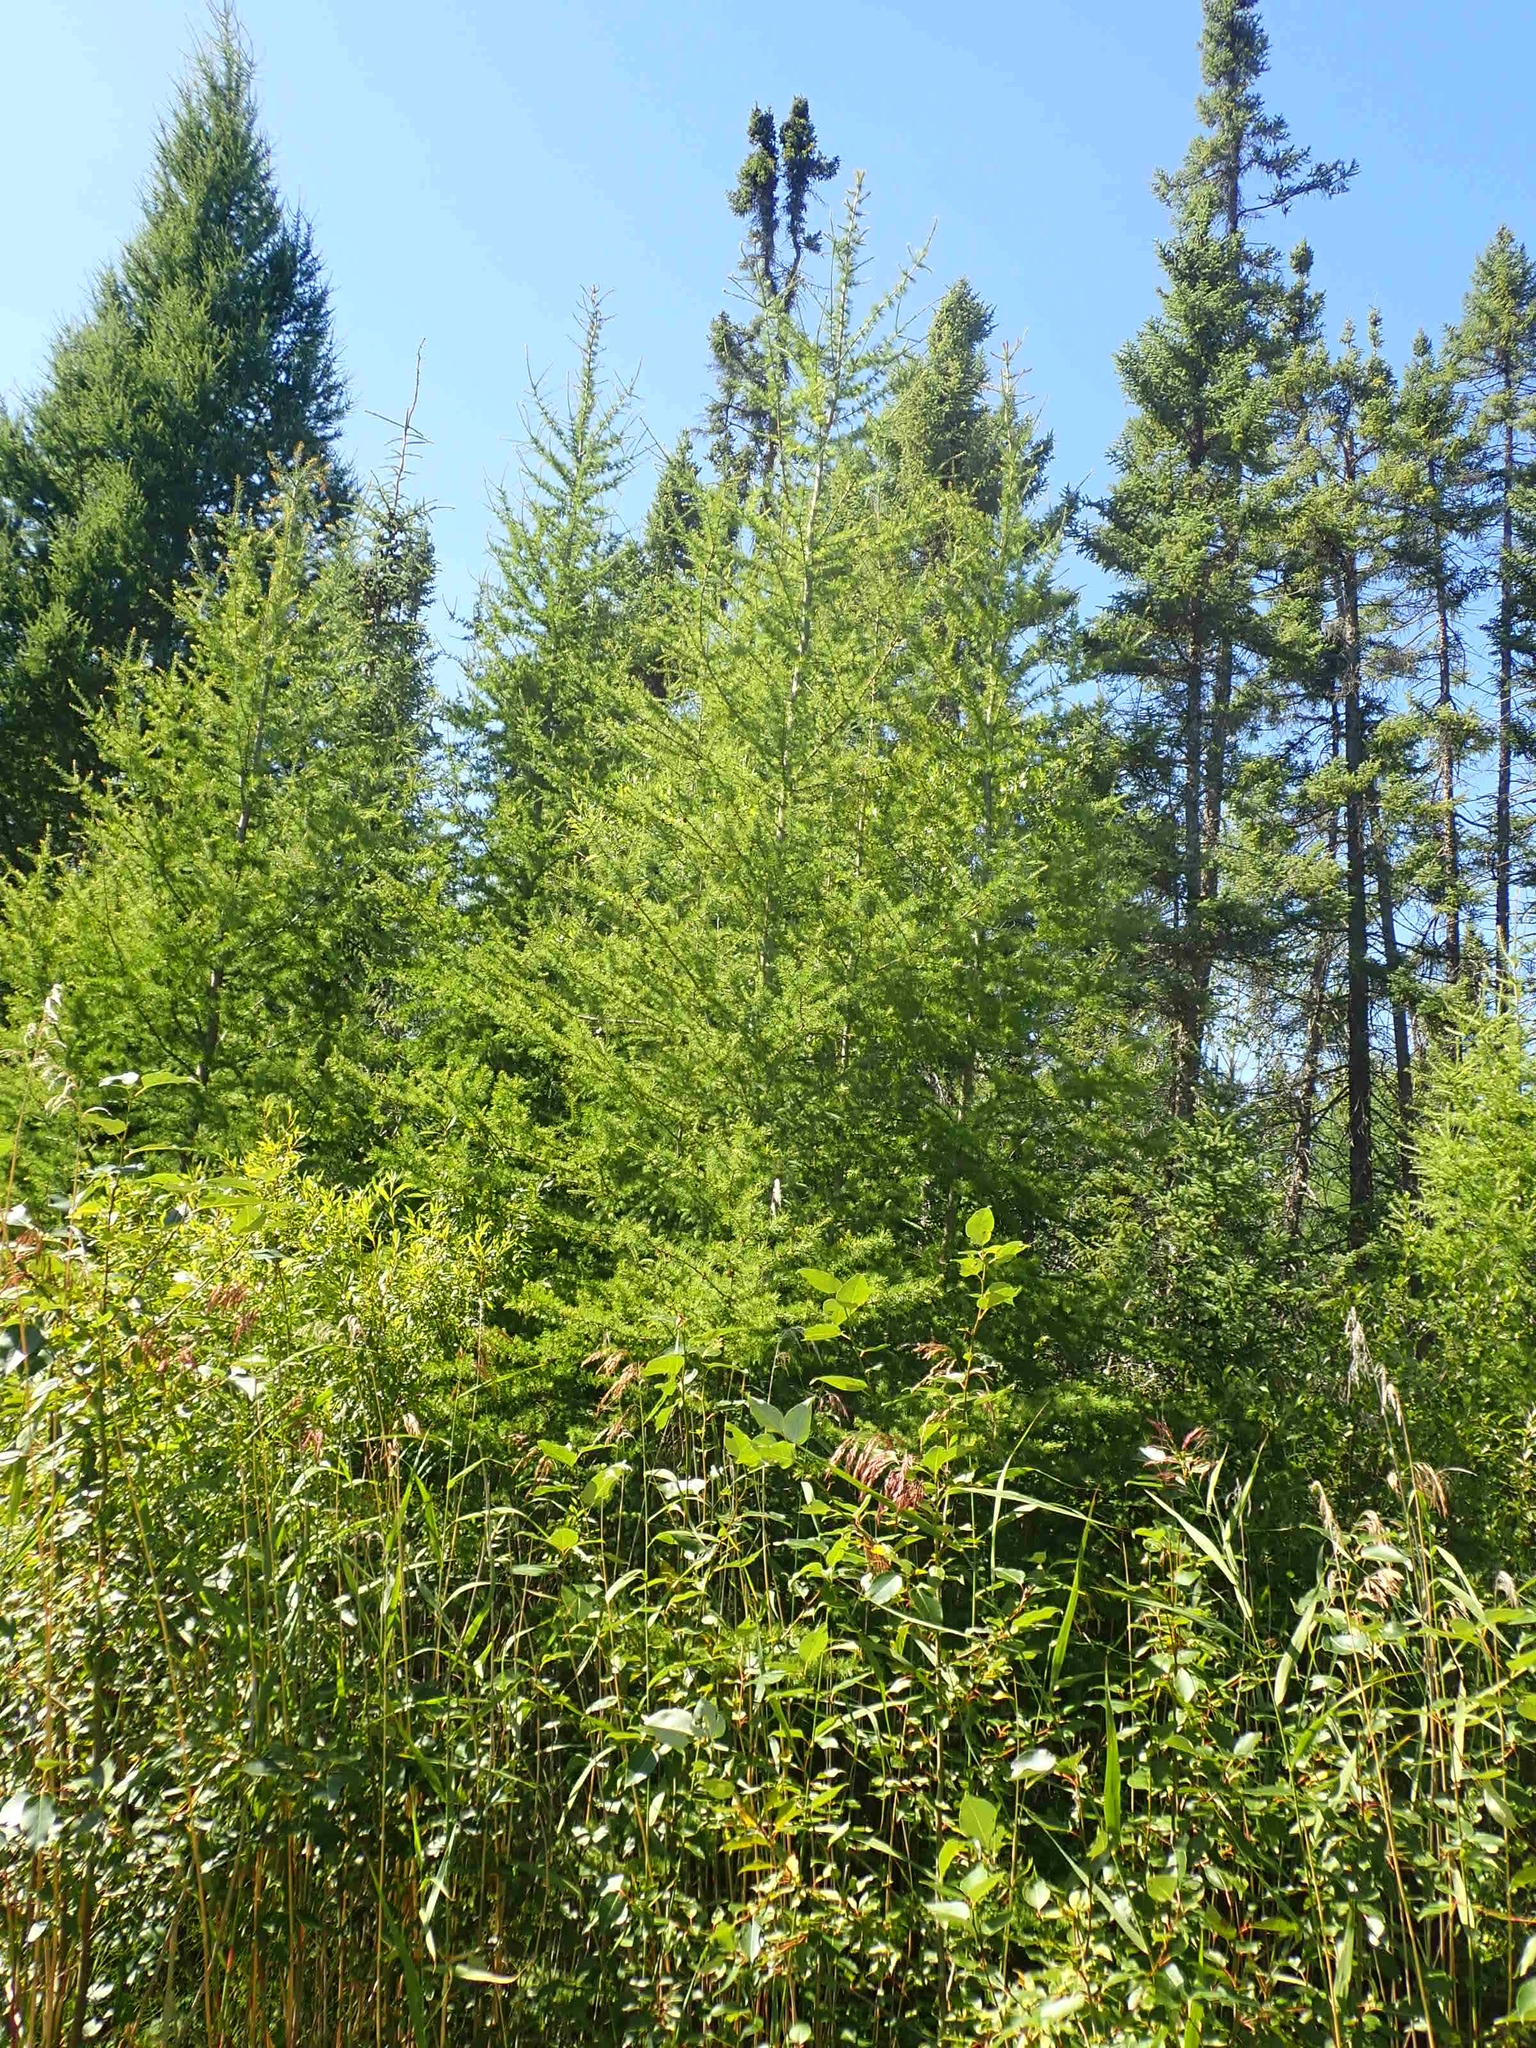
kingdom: Plantae
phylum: Tracheophyta
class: Pinopsida
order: Pinales
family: Pinaceae
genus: Larix
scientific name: Larix laricina
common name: American larch
